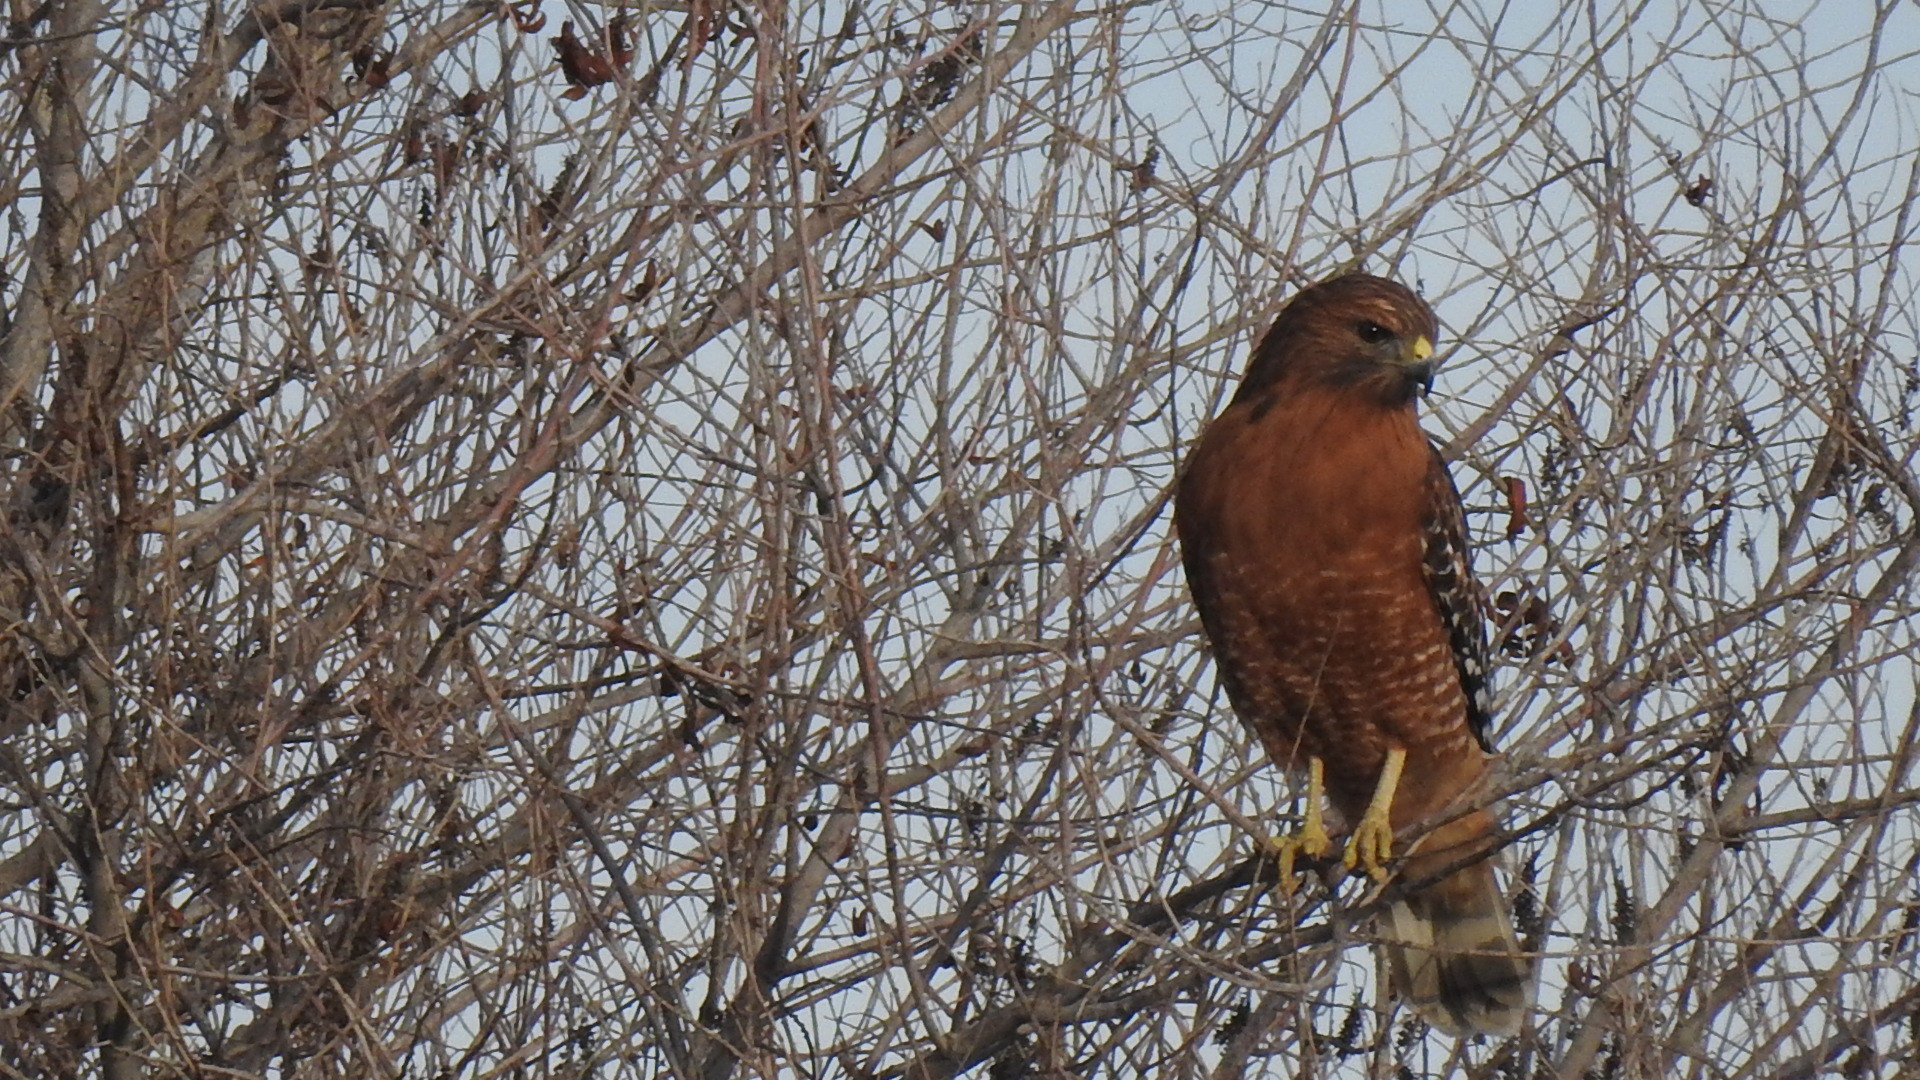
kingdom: Animalia
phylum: Chordata
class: Aves
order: Accipitriformes
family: Accipitridae
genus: Buteo
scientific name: Buteo lineatus
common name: Red-shouldered hawk
